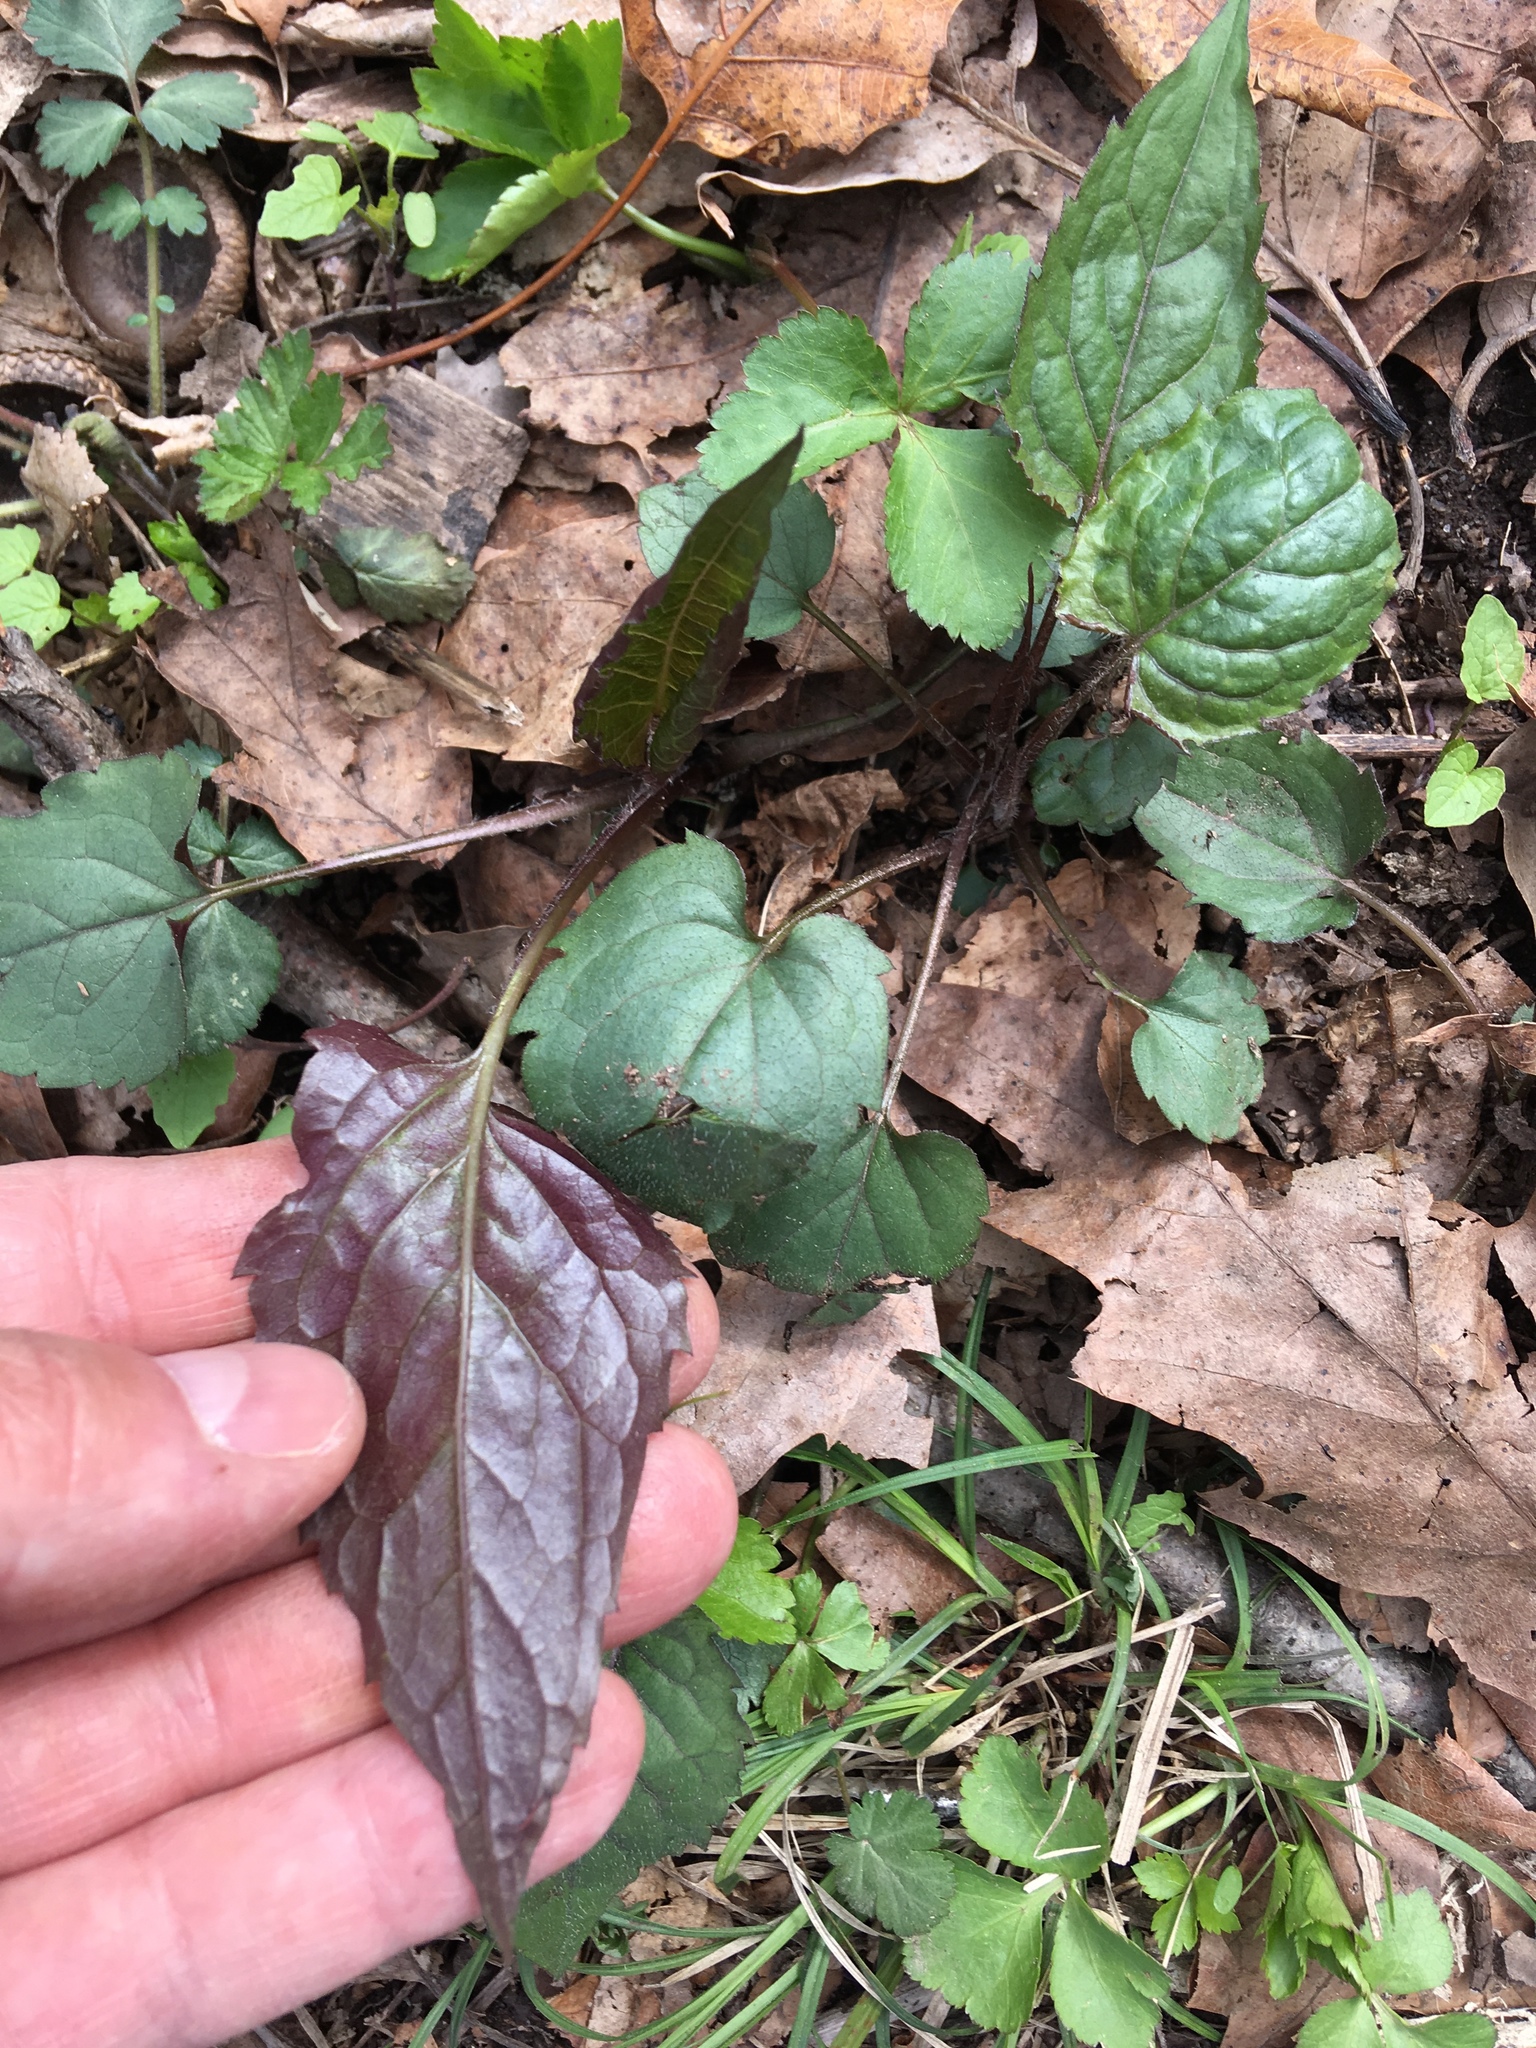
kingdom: Plantae
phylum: Tracheophyta
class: Magnoliopsida
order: Asterales
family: Asteraceae
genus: Eurybia
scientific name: Eurybia divaricata
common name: White wood aster
